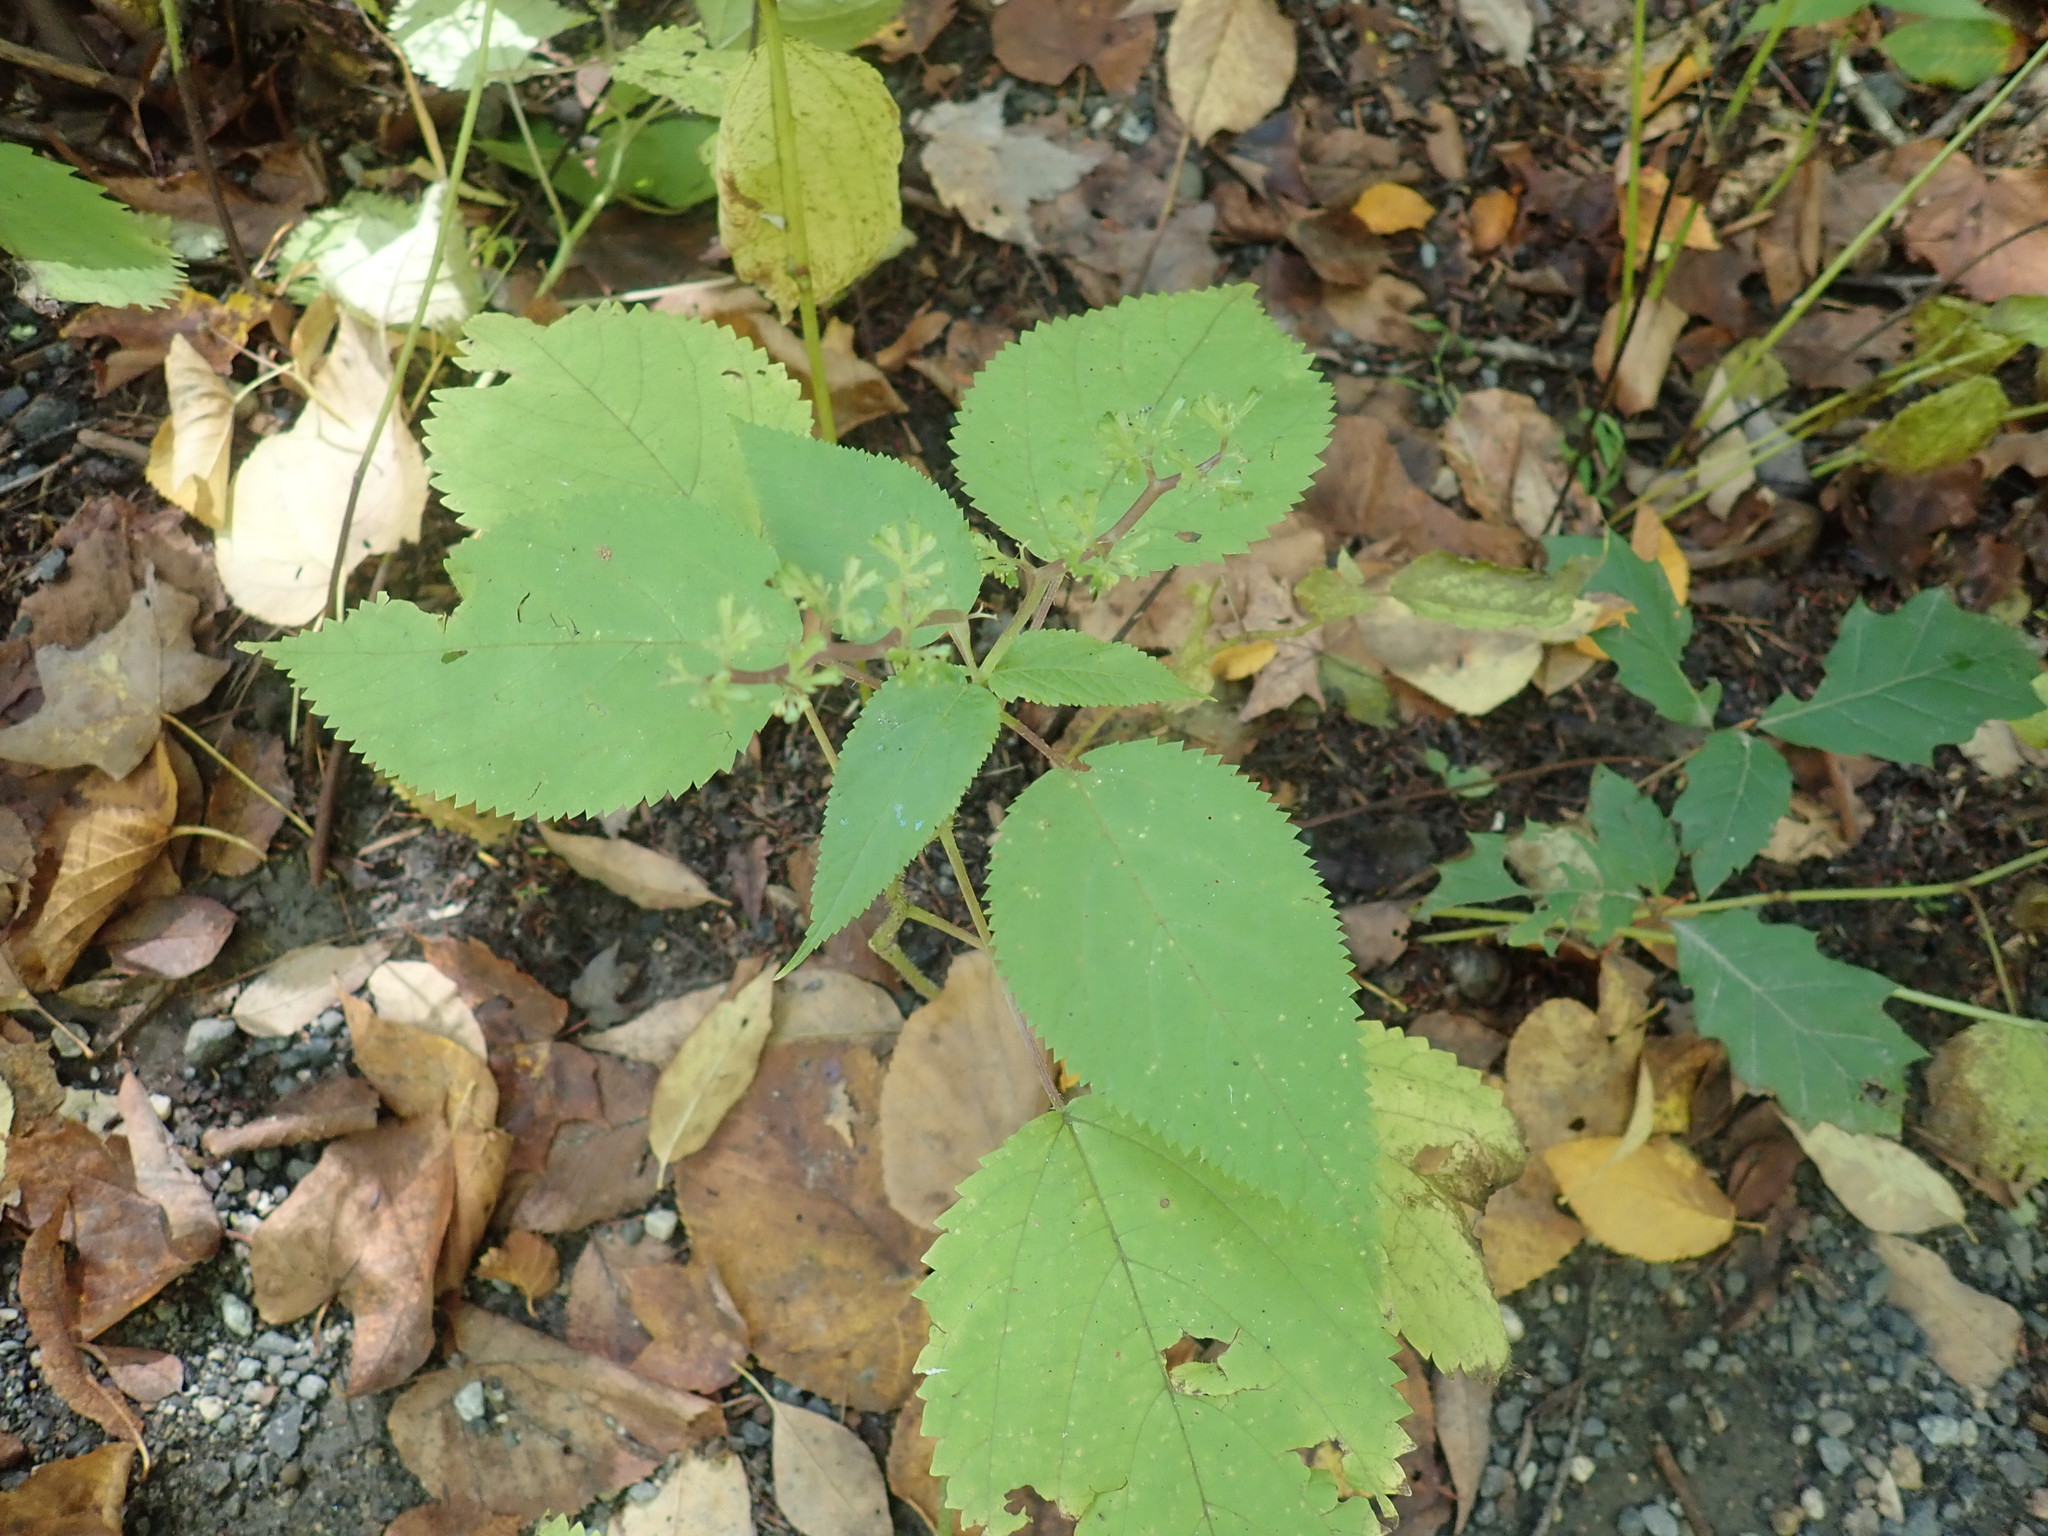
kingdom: Plantae
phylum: Tracheophyta
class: Magnoliopsida
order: Rosales
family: Urticaceae
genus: Laportea
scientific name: Laportea canadensis
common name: Canada nettle
